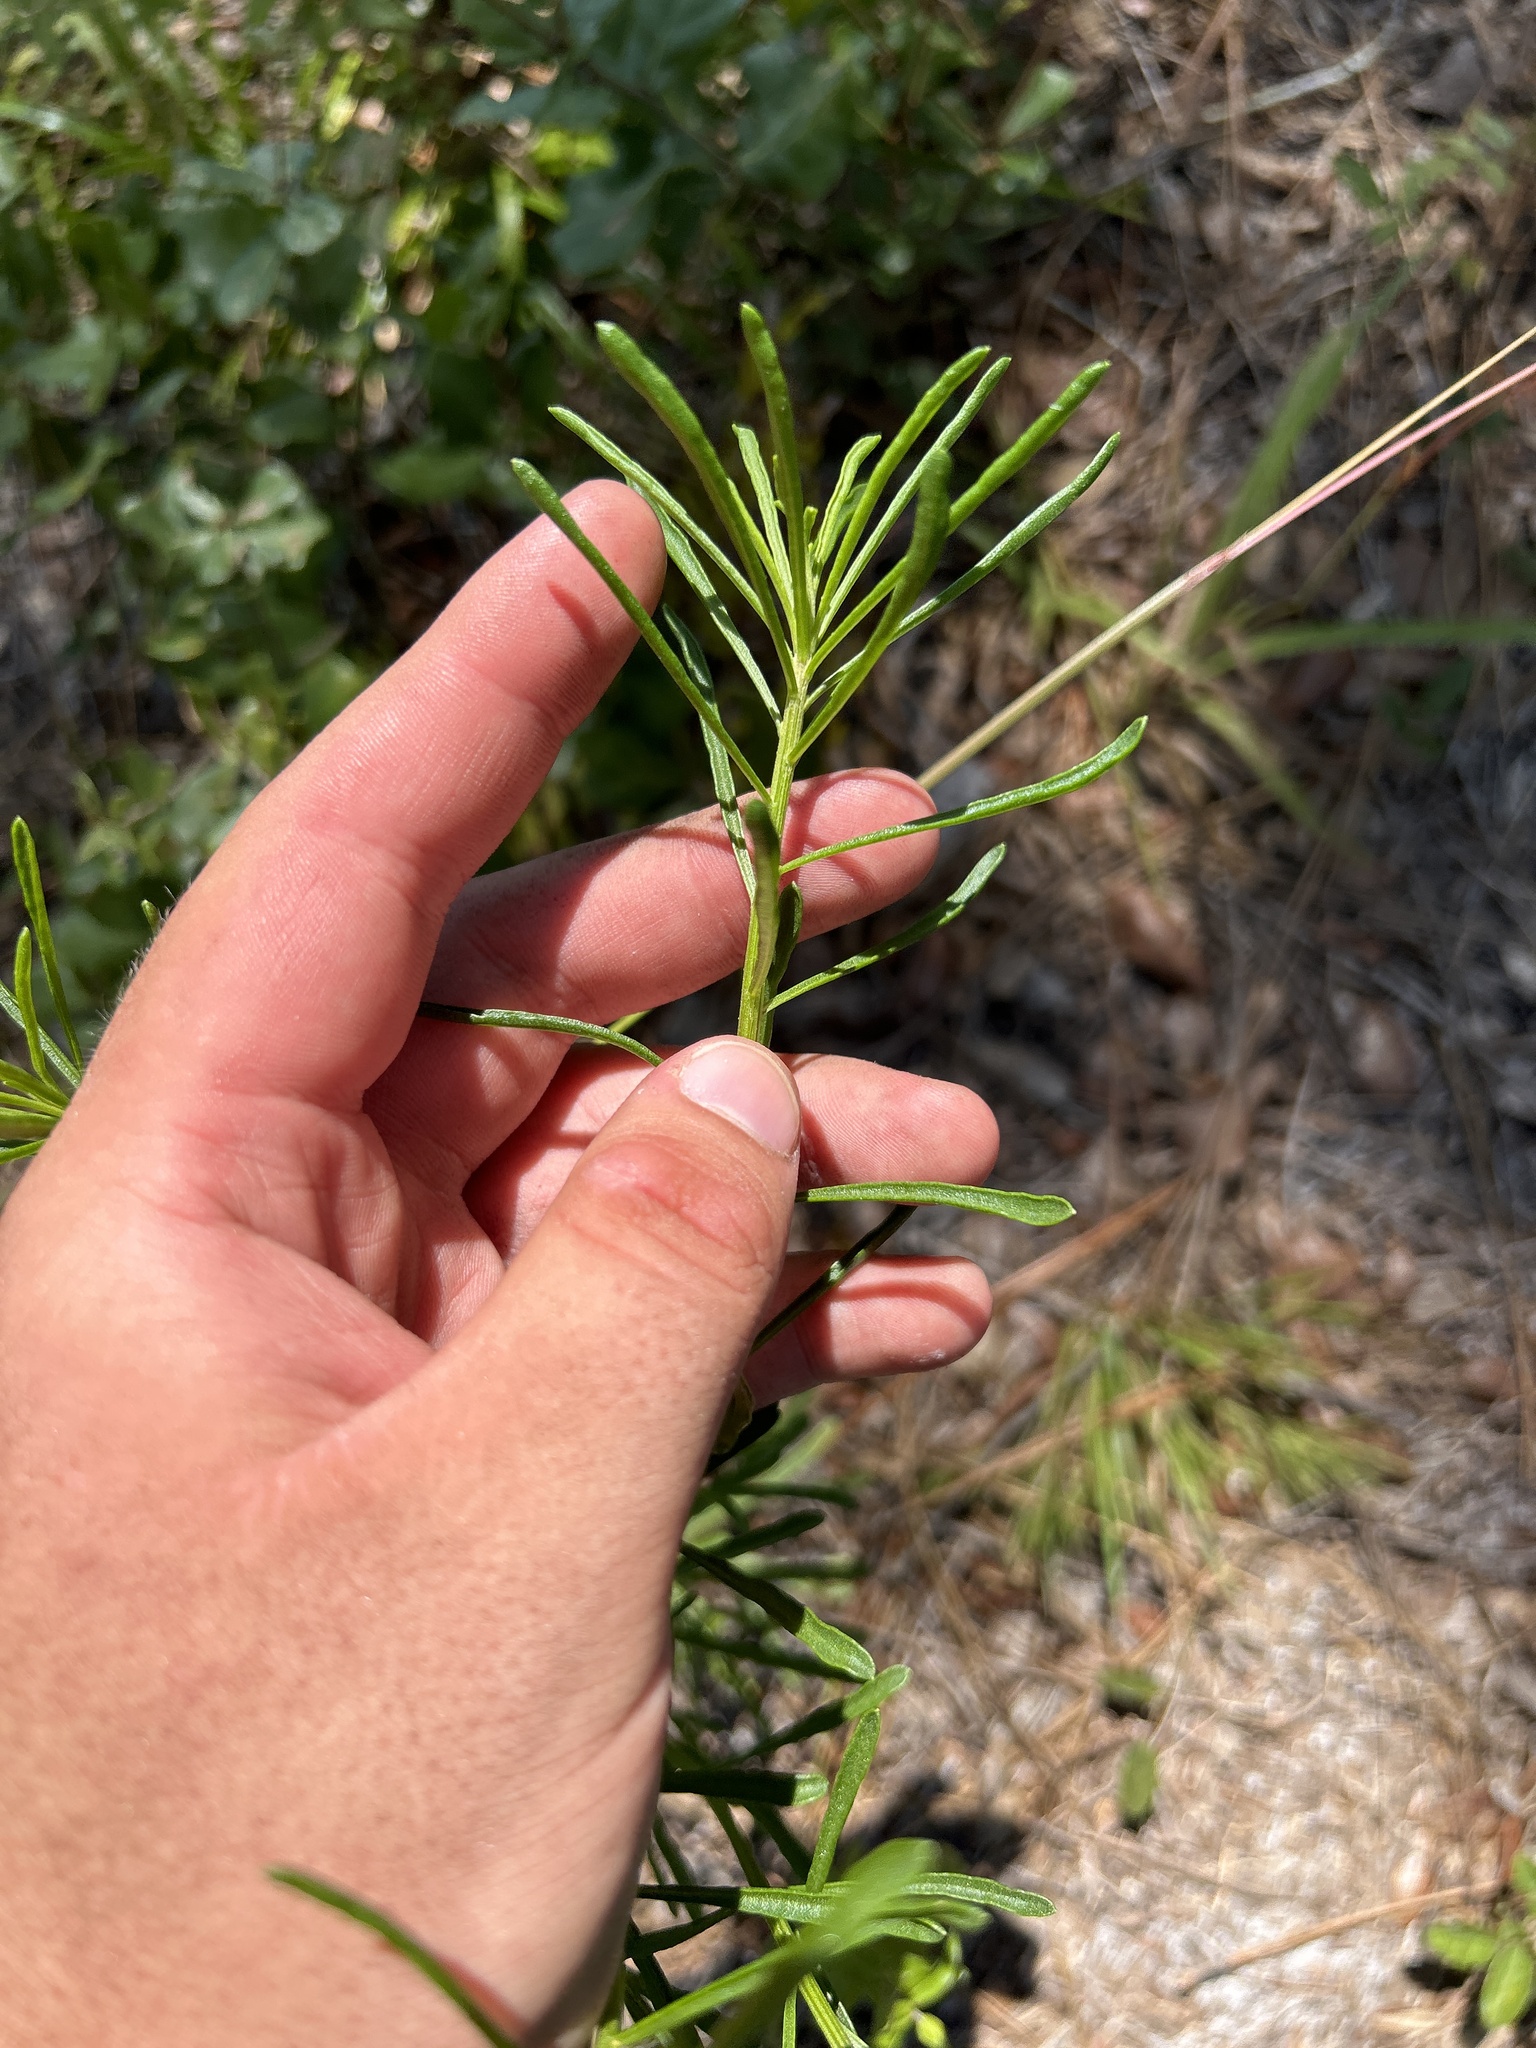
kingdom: Plantae
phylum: Tracheophyta
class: Magnoliopsida
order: Asterales
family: Asteraceae
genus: Balduina
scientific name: Balduina angustifolia
